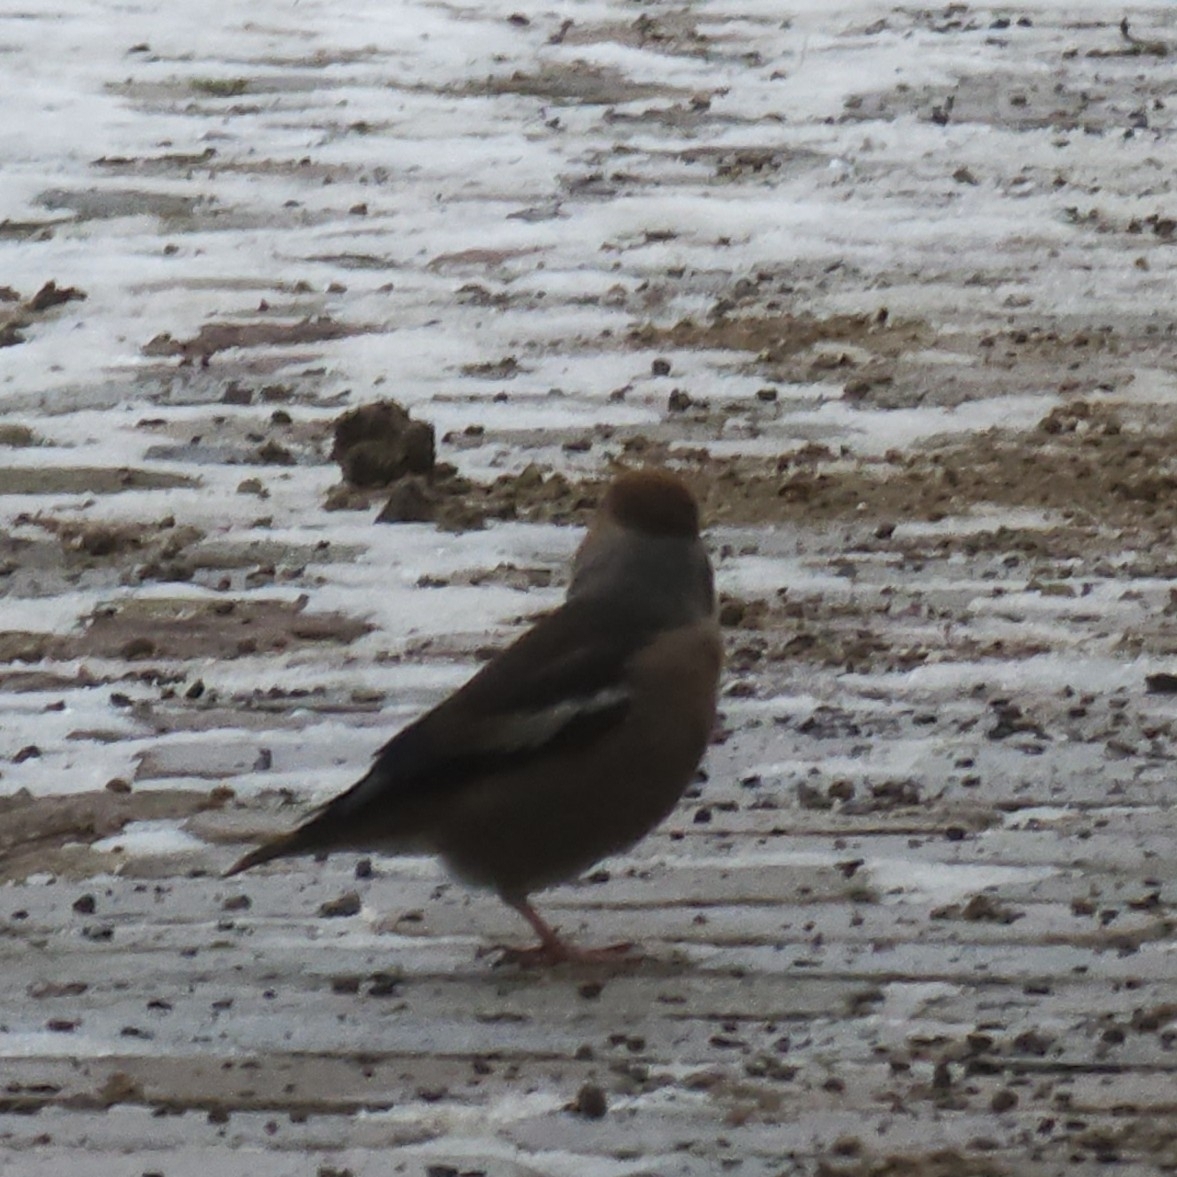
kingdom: Animalia
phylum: Chordata
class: Aves
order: Passeriformes
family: Fringillidae
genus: Coccothraustes
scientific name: Coccothraustes coccothraustes
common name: Hawfinch
